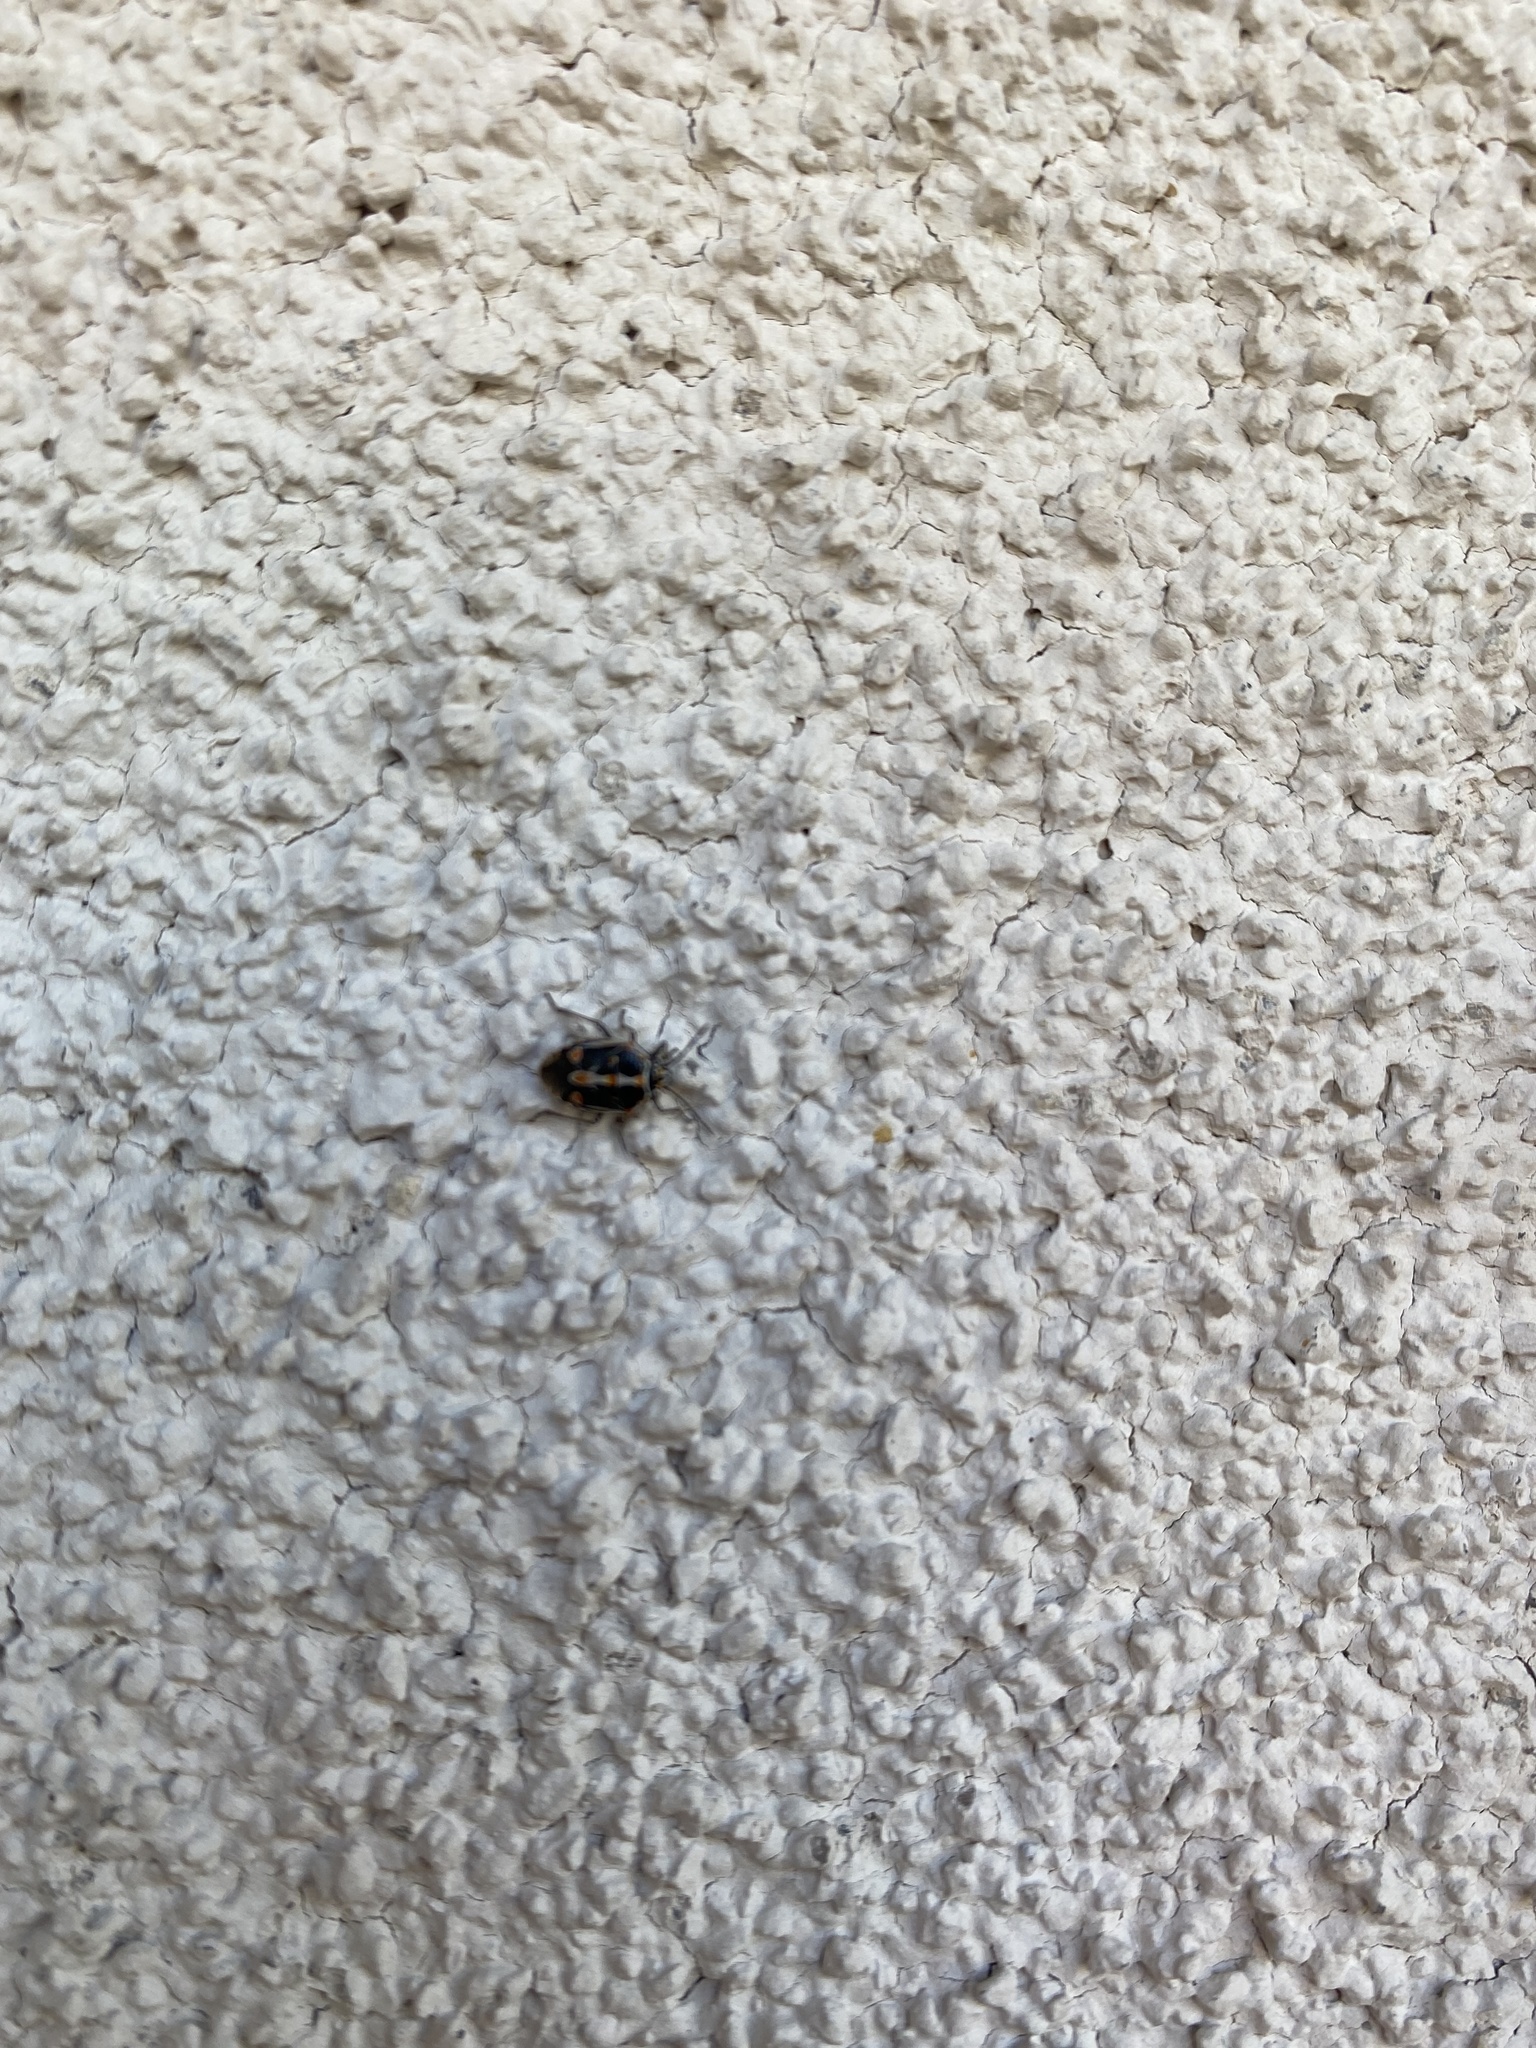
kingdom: Animalia
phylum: Arthropoda
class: Insecta
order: Hemiptera
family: Pentatomidae
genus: Bagrada
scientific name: Bagrada hilaris
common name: Bagrada bug
